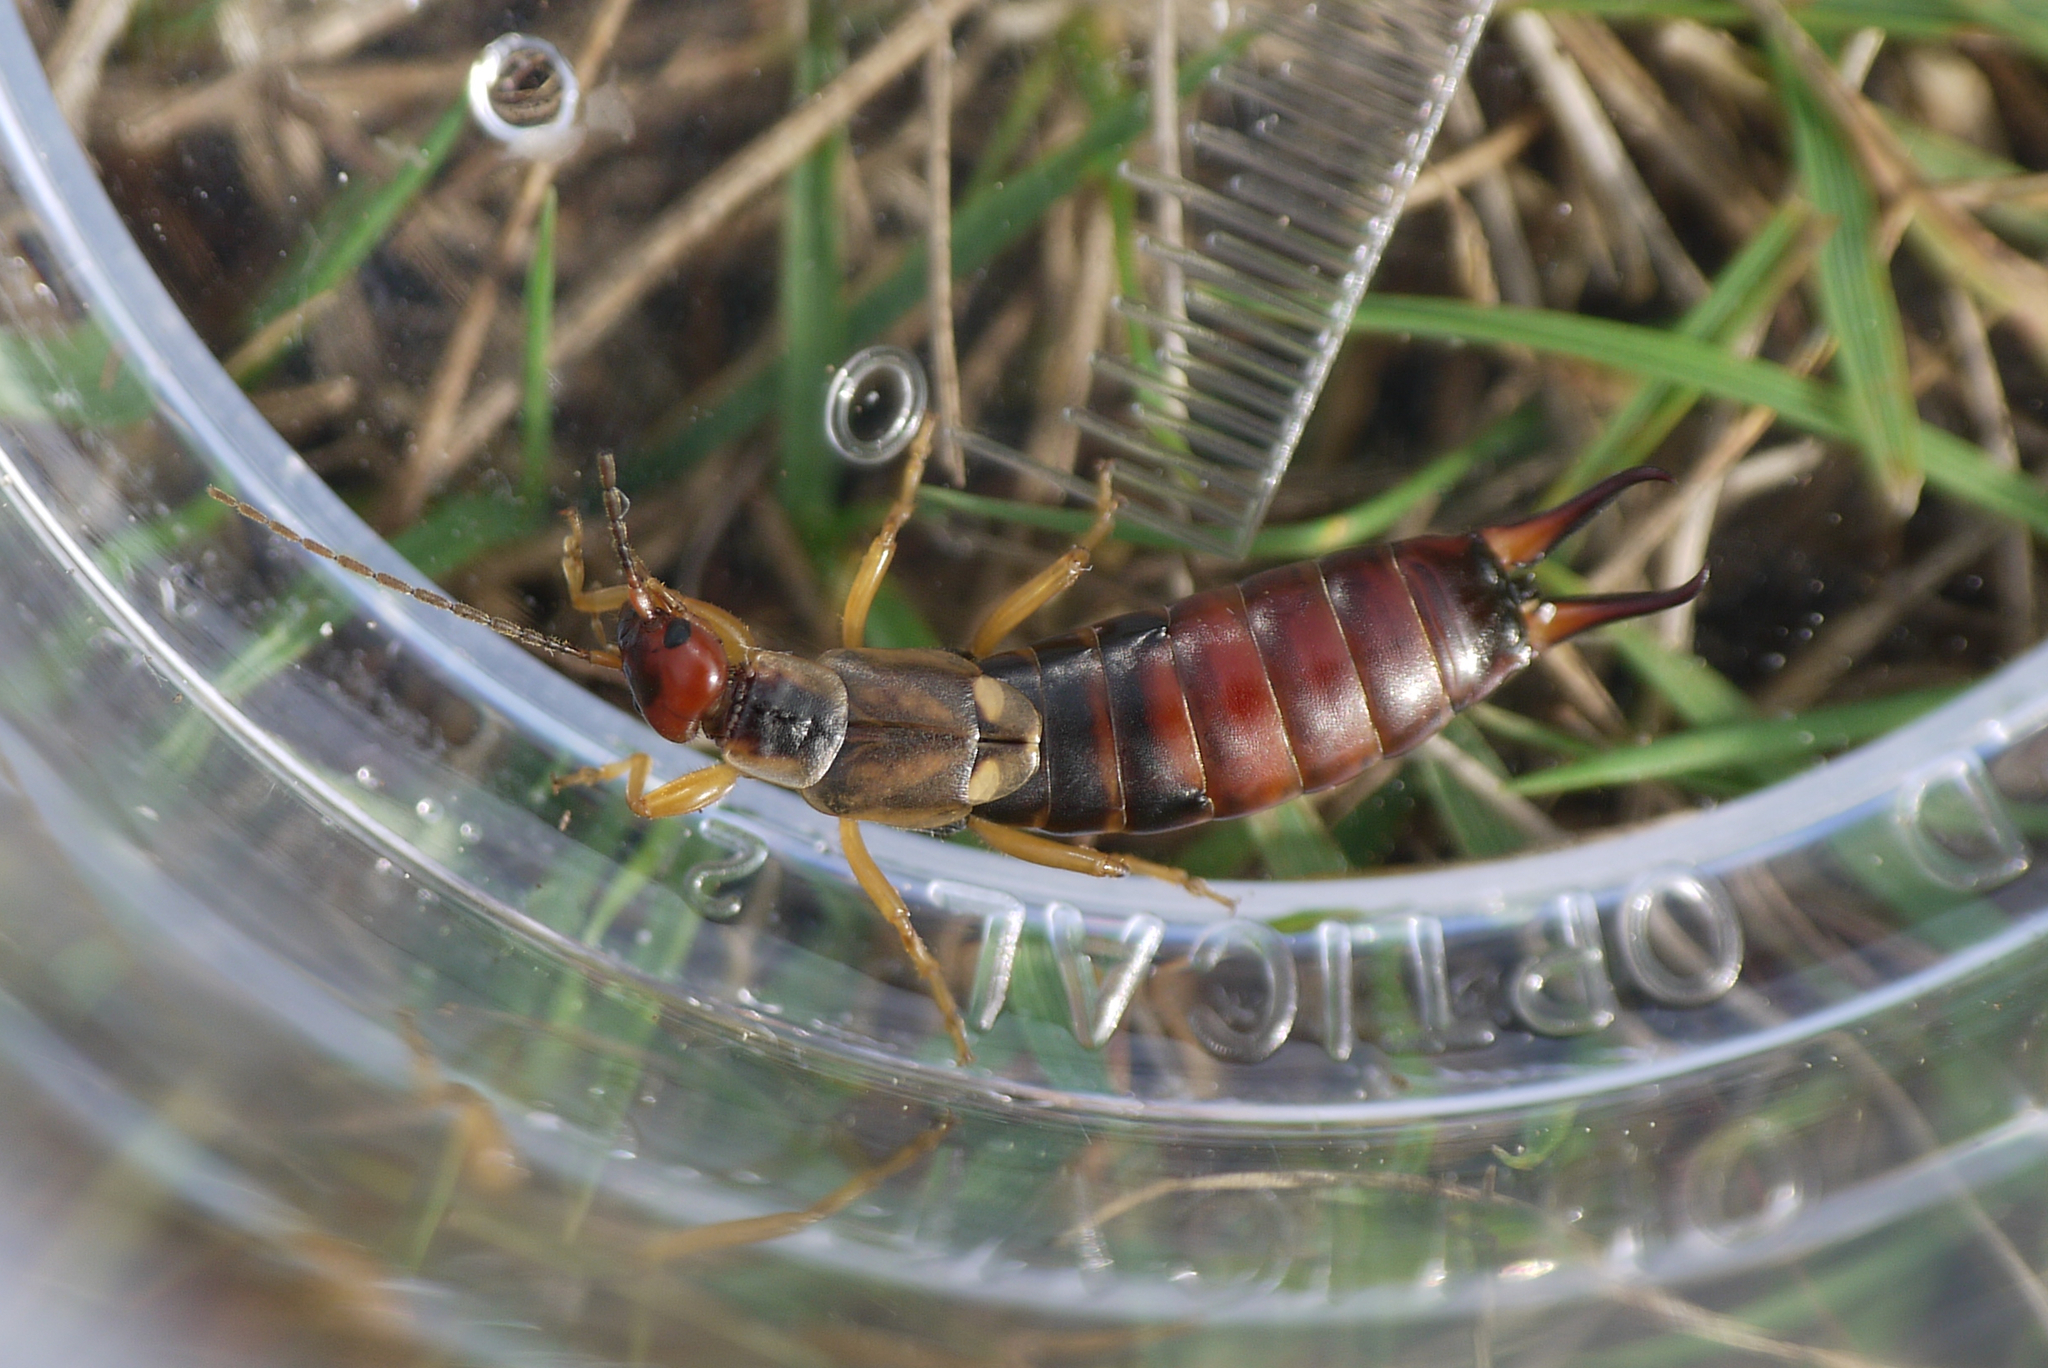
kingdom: Animalia
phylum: Arthropoda
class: Insecta
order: Dermaptera
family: Forficulidae
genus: Forficula
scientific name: Forficula
